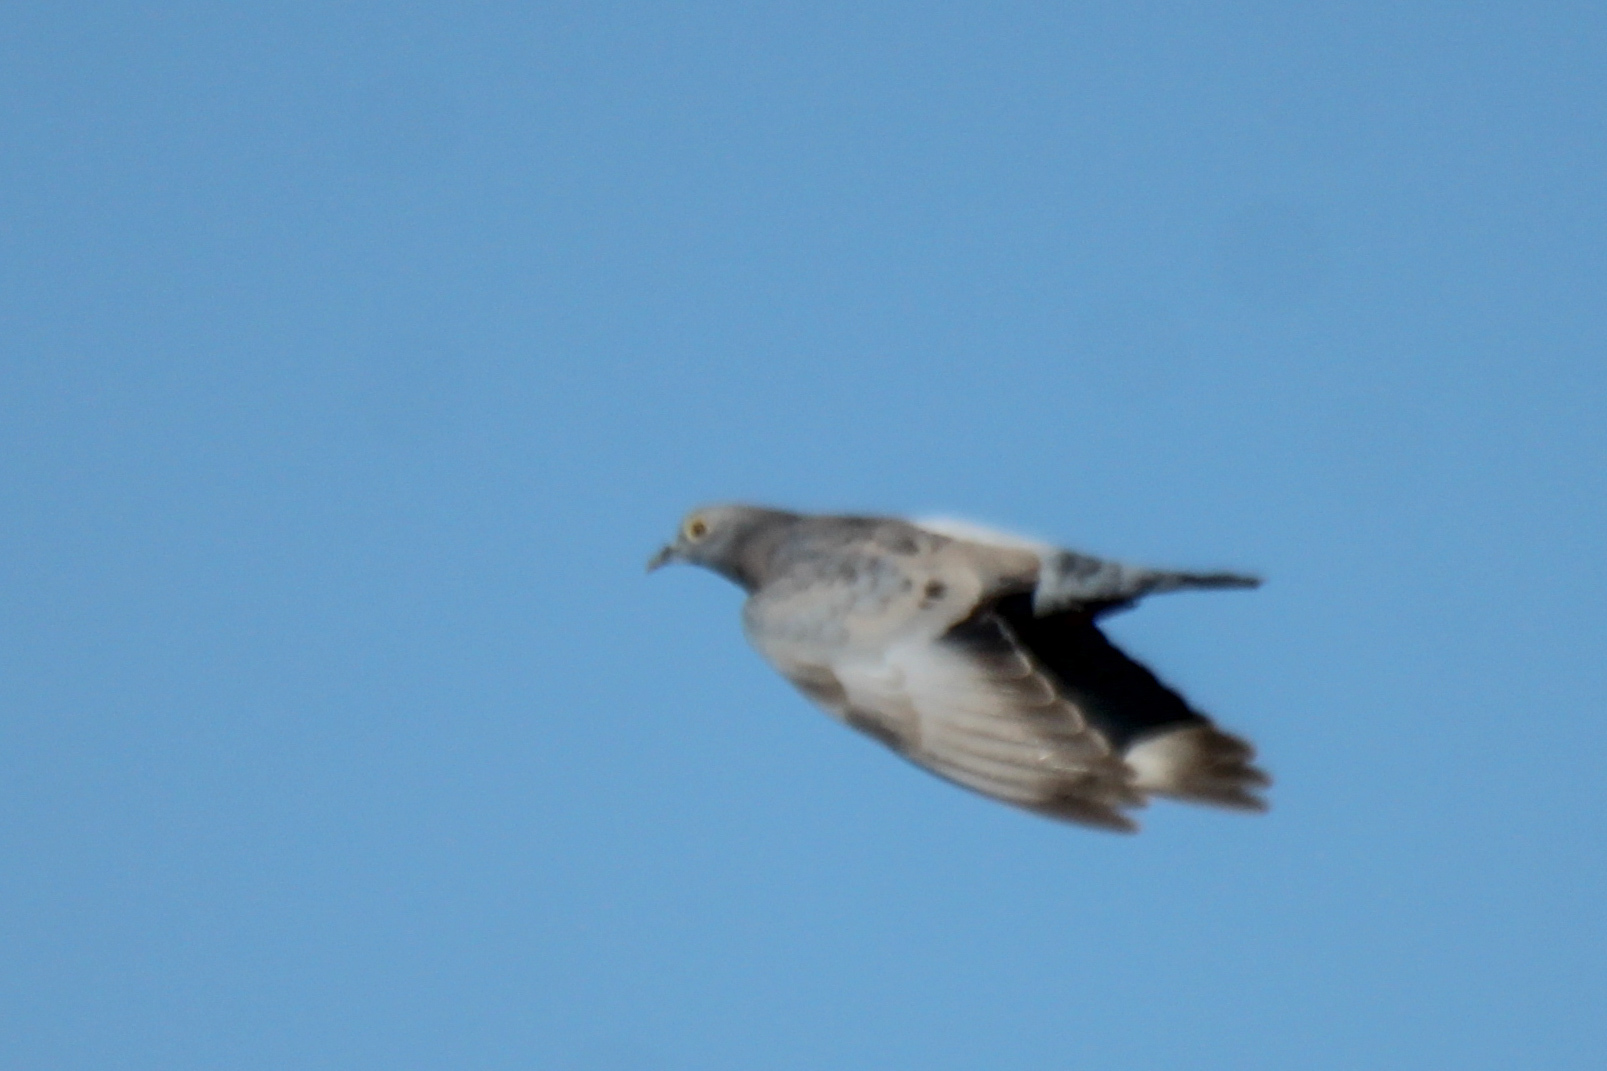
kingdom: Animalia
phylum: Chordata
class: Aves
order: Columbiformes
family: Columbidae
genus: Columba
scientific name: Columba eversmanni
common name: Yellow-eyed pigeon
